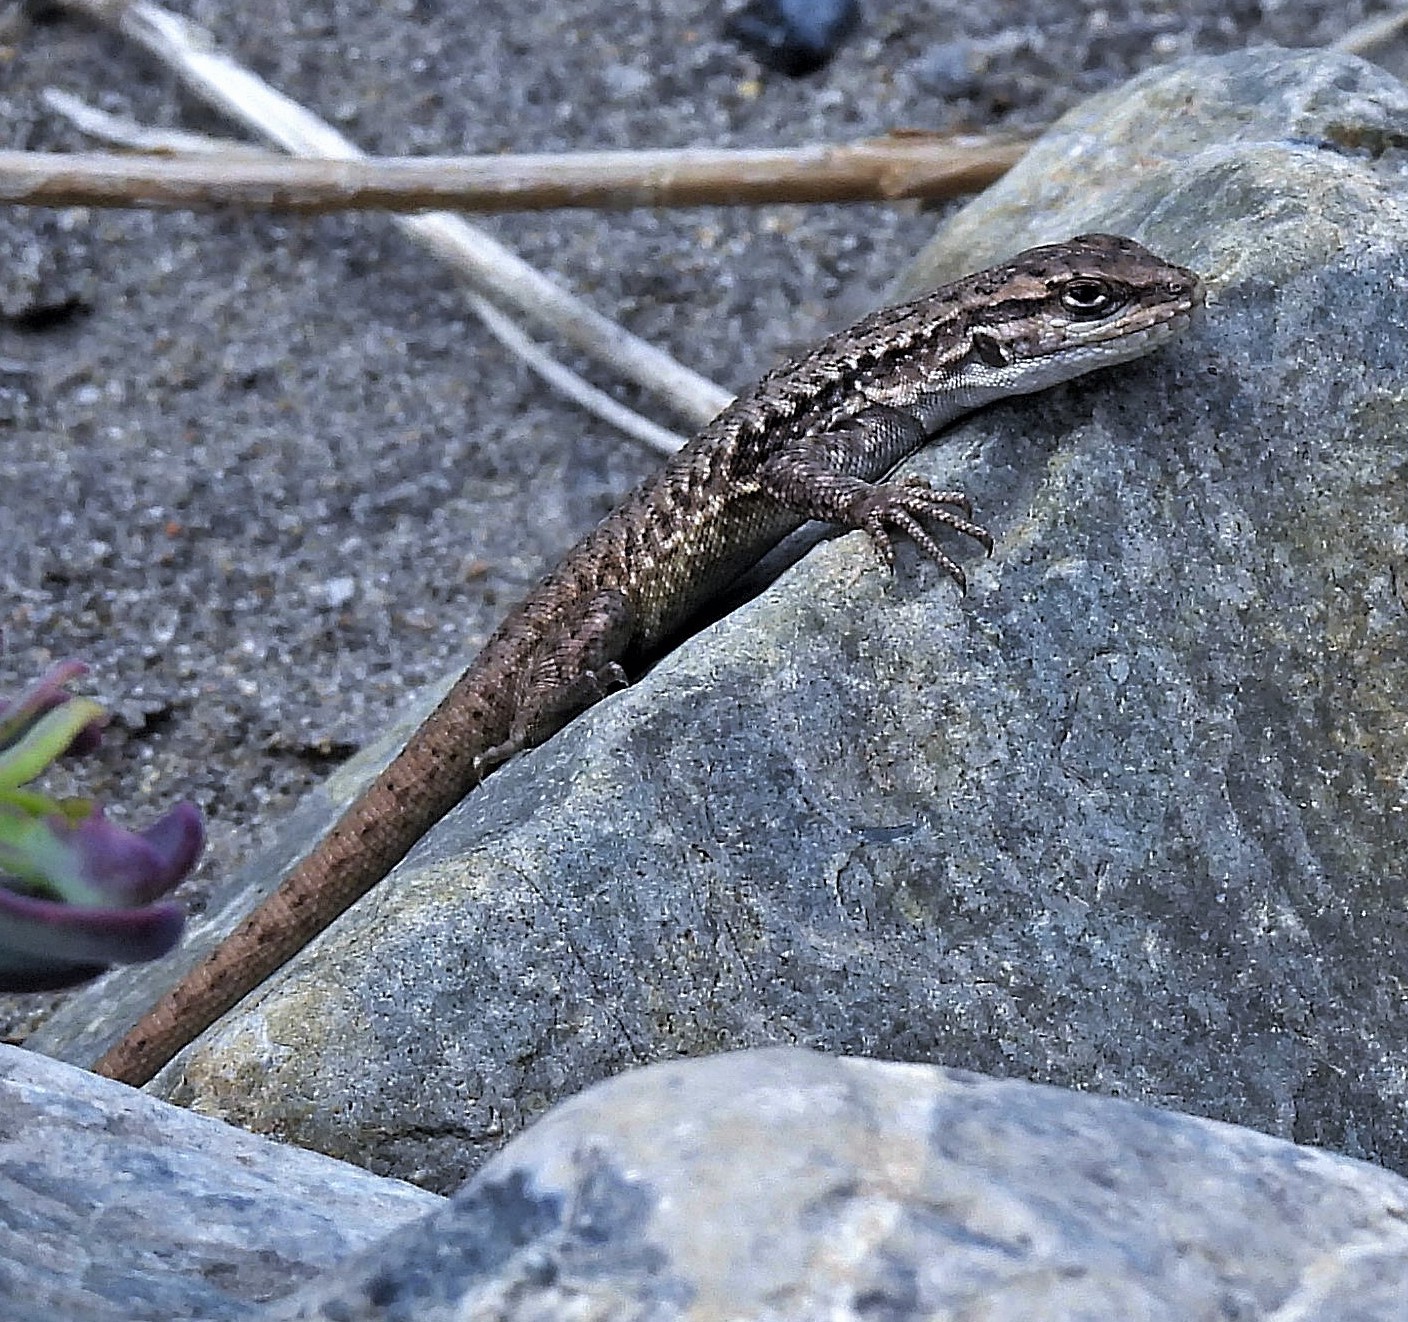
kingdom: Animalia
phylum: Chordata
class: Squamata
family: Liolaemidae
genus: Liolaemus
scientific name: Liolaemus smaug
